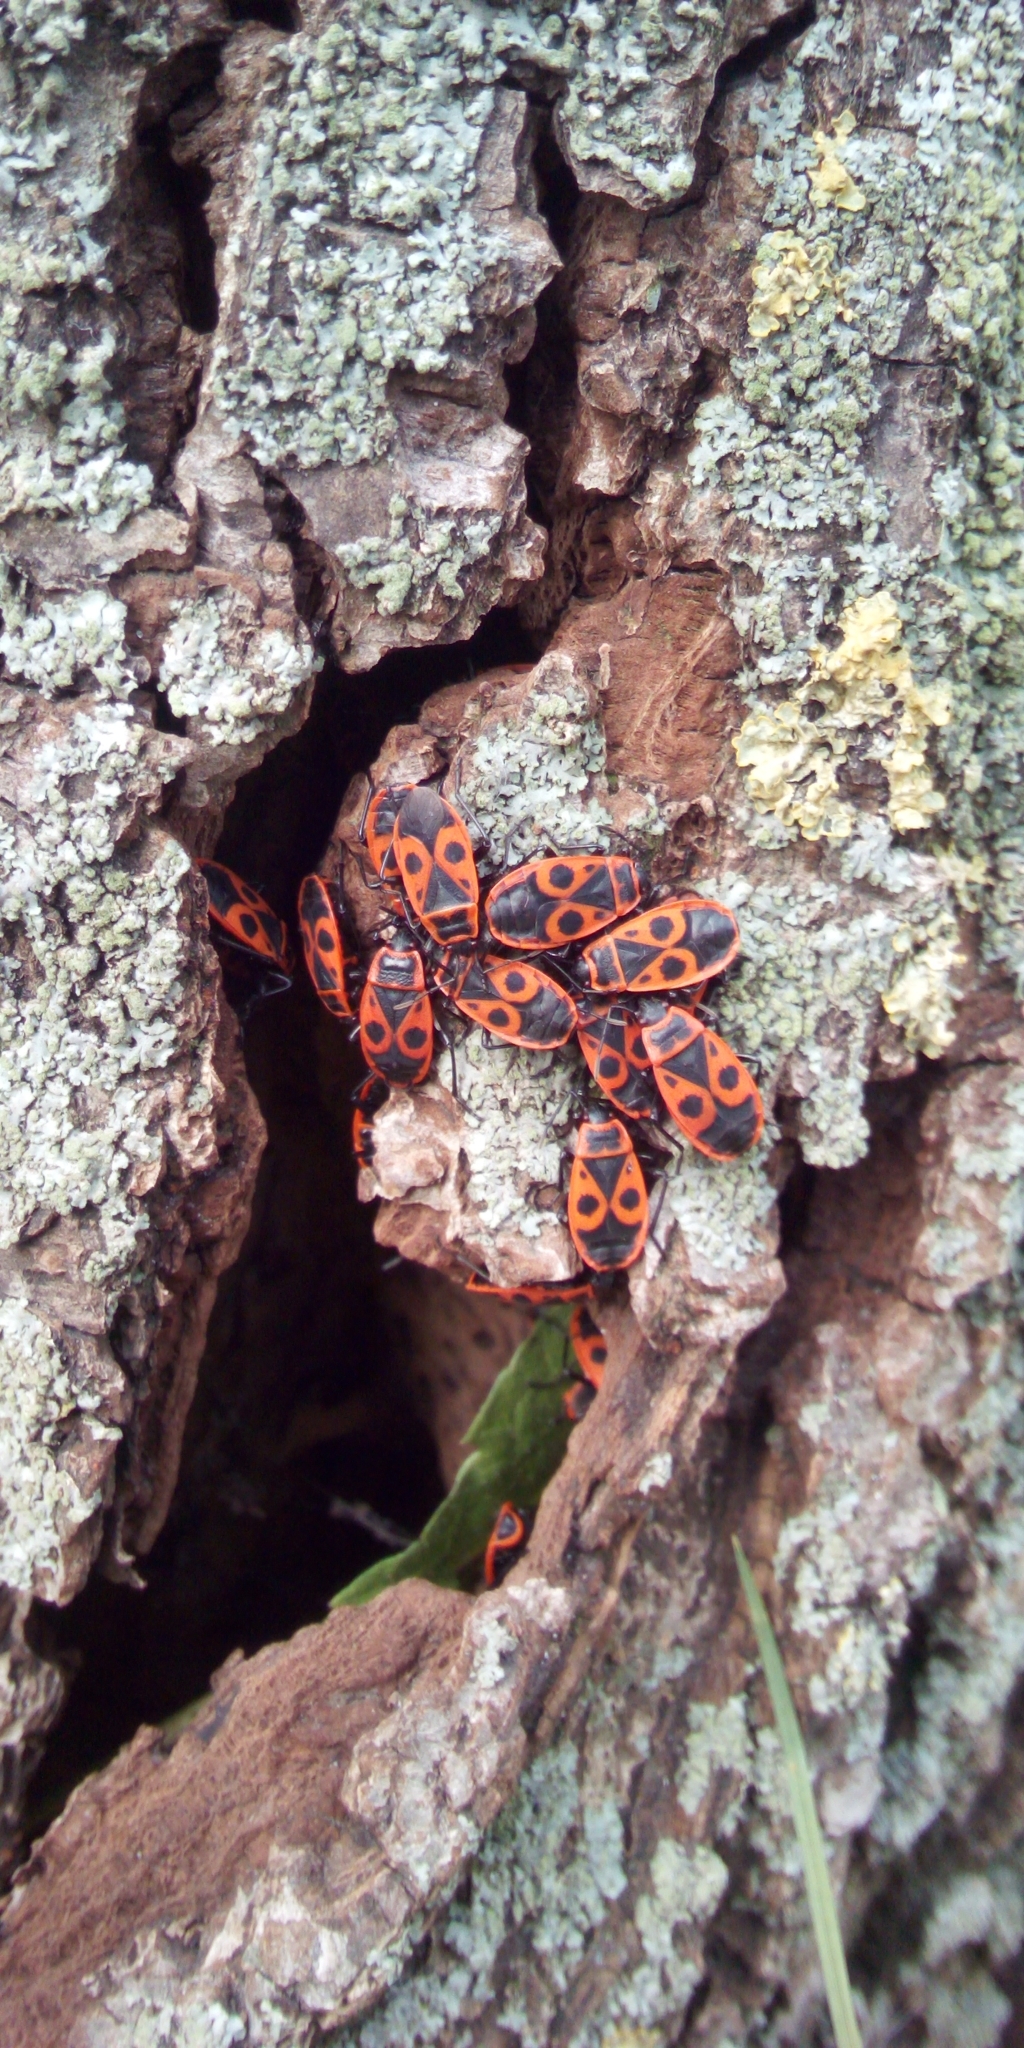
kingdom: Animalia
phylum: Arthropoda
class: Insecta
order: Hemiptera
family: Pyrrhocoridae
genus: Pyrrhocoris
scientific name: Pyrrhocoris apterus
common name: Firebug
